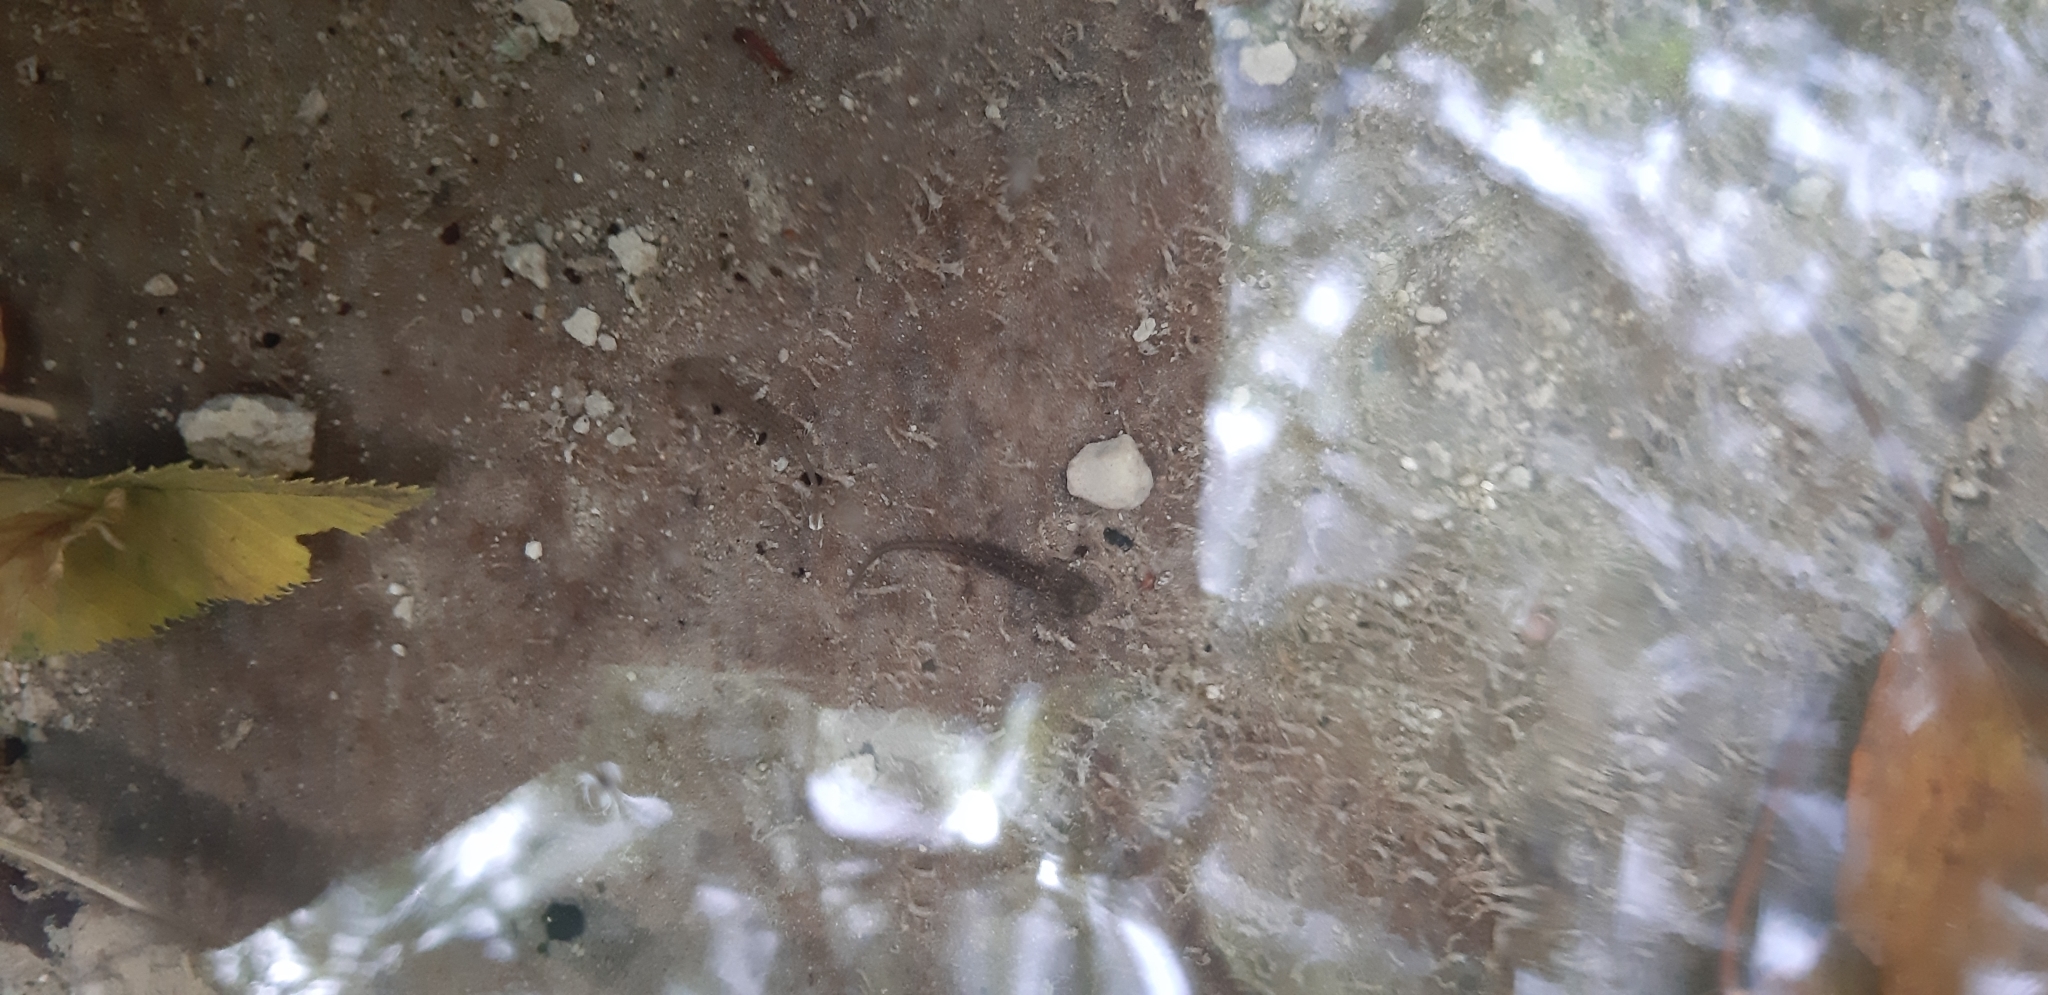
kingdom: Animalia
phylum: Chordata
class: Amphibia
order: Caudata
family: Salamandridae
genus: Salamandrina
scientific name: Salamandrina perspicillata
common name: Northern spectacled salamander
